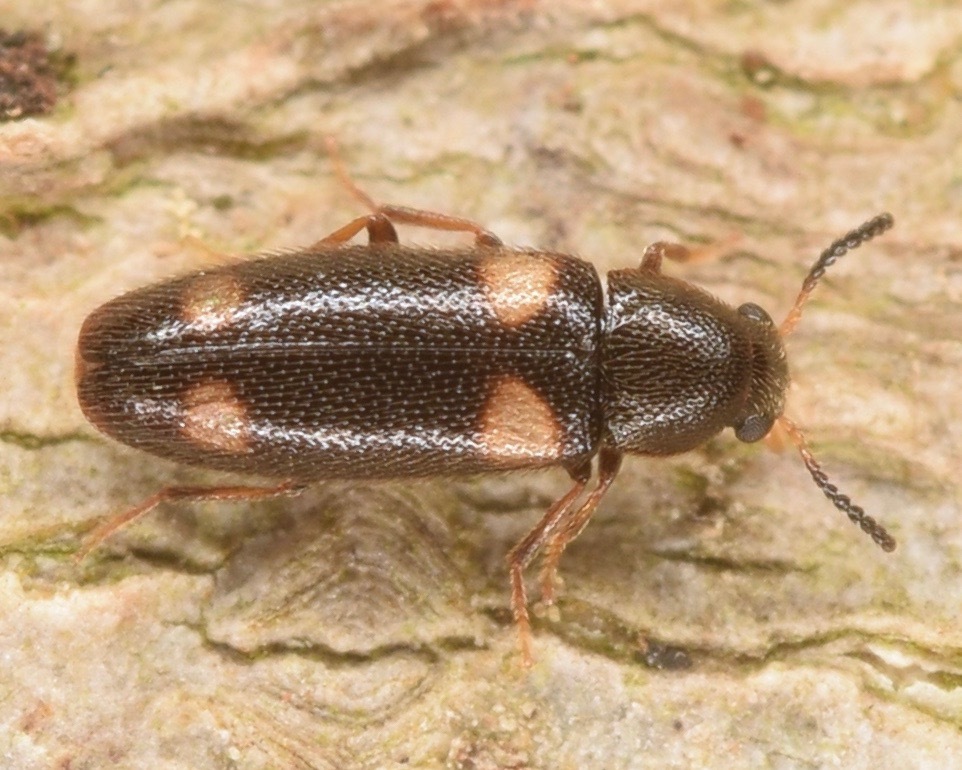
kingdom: Animalia
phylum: Arthropoda
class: Insecta
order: Coleoptera
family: Melandryidae
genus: Spilotus
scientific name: Spilotus quadripustulatus
